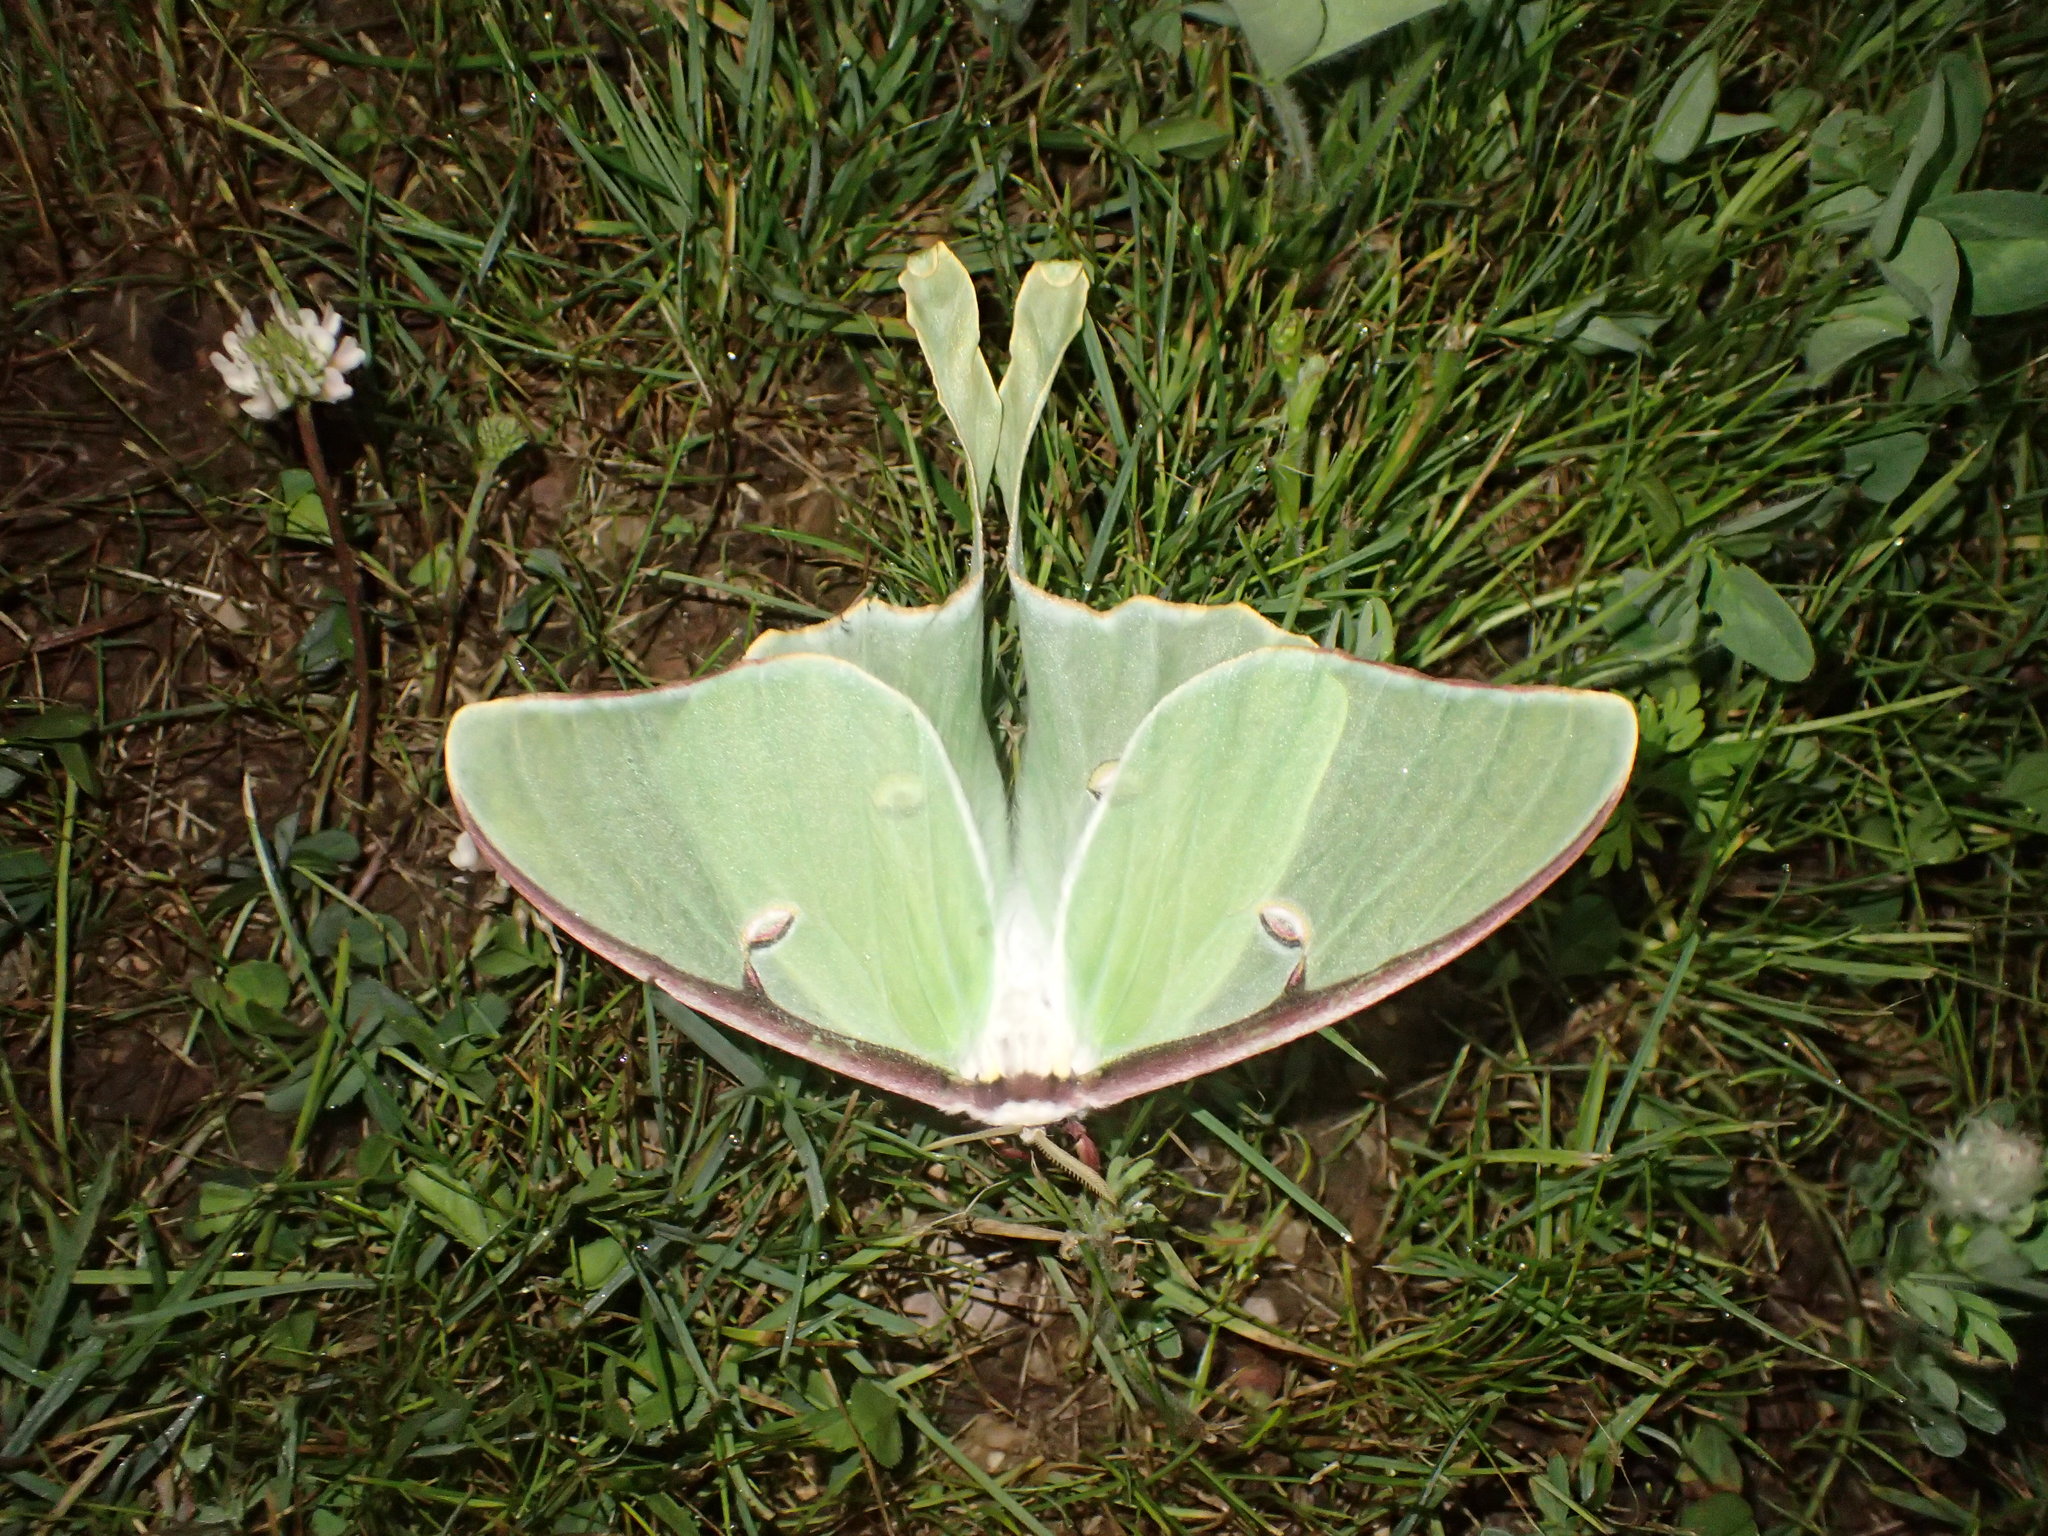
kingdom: Animalia
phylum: Arthropoda
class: Insecta
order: Lepidoptera
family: Saturniidae
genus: Actias
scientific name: Actias luna
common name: Luna moth
